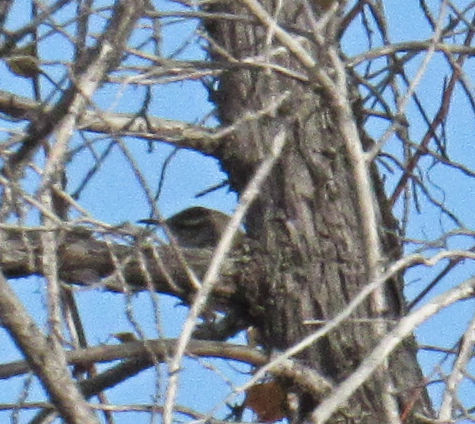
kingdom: Animalia
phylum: Chordata
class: Aves
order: Passeriformes
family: Troglodytidae
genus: Thryomanes
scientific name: Thryomanes bewickii
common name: Bewick's wren
